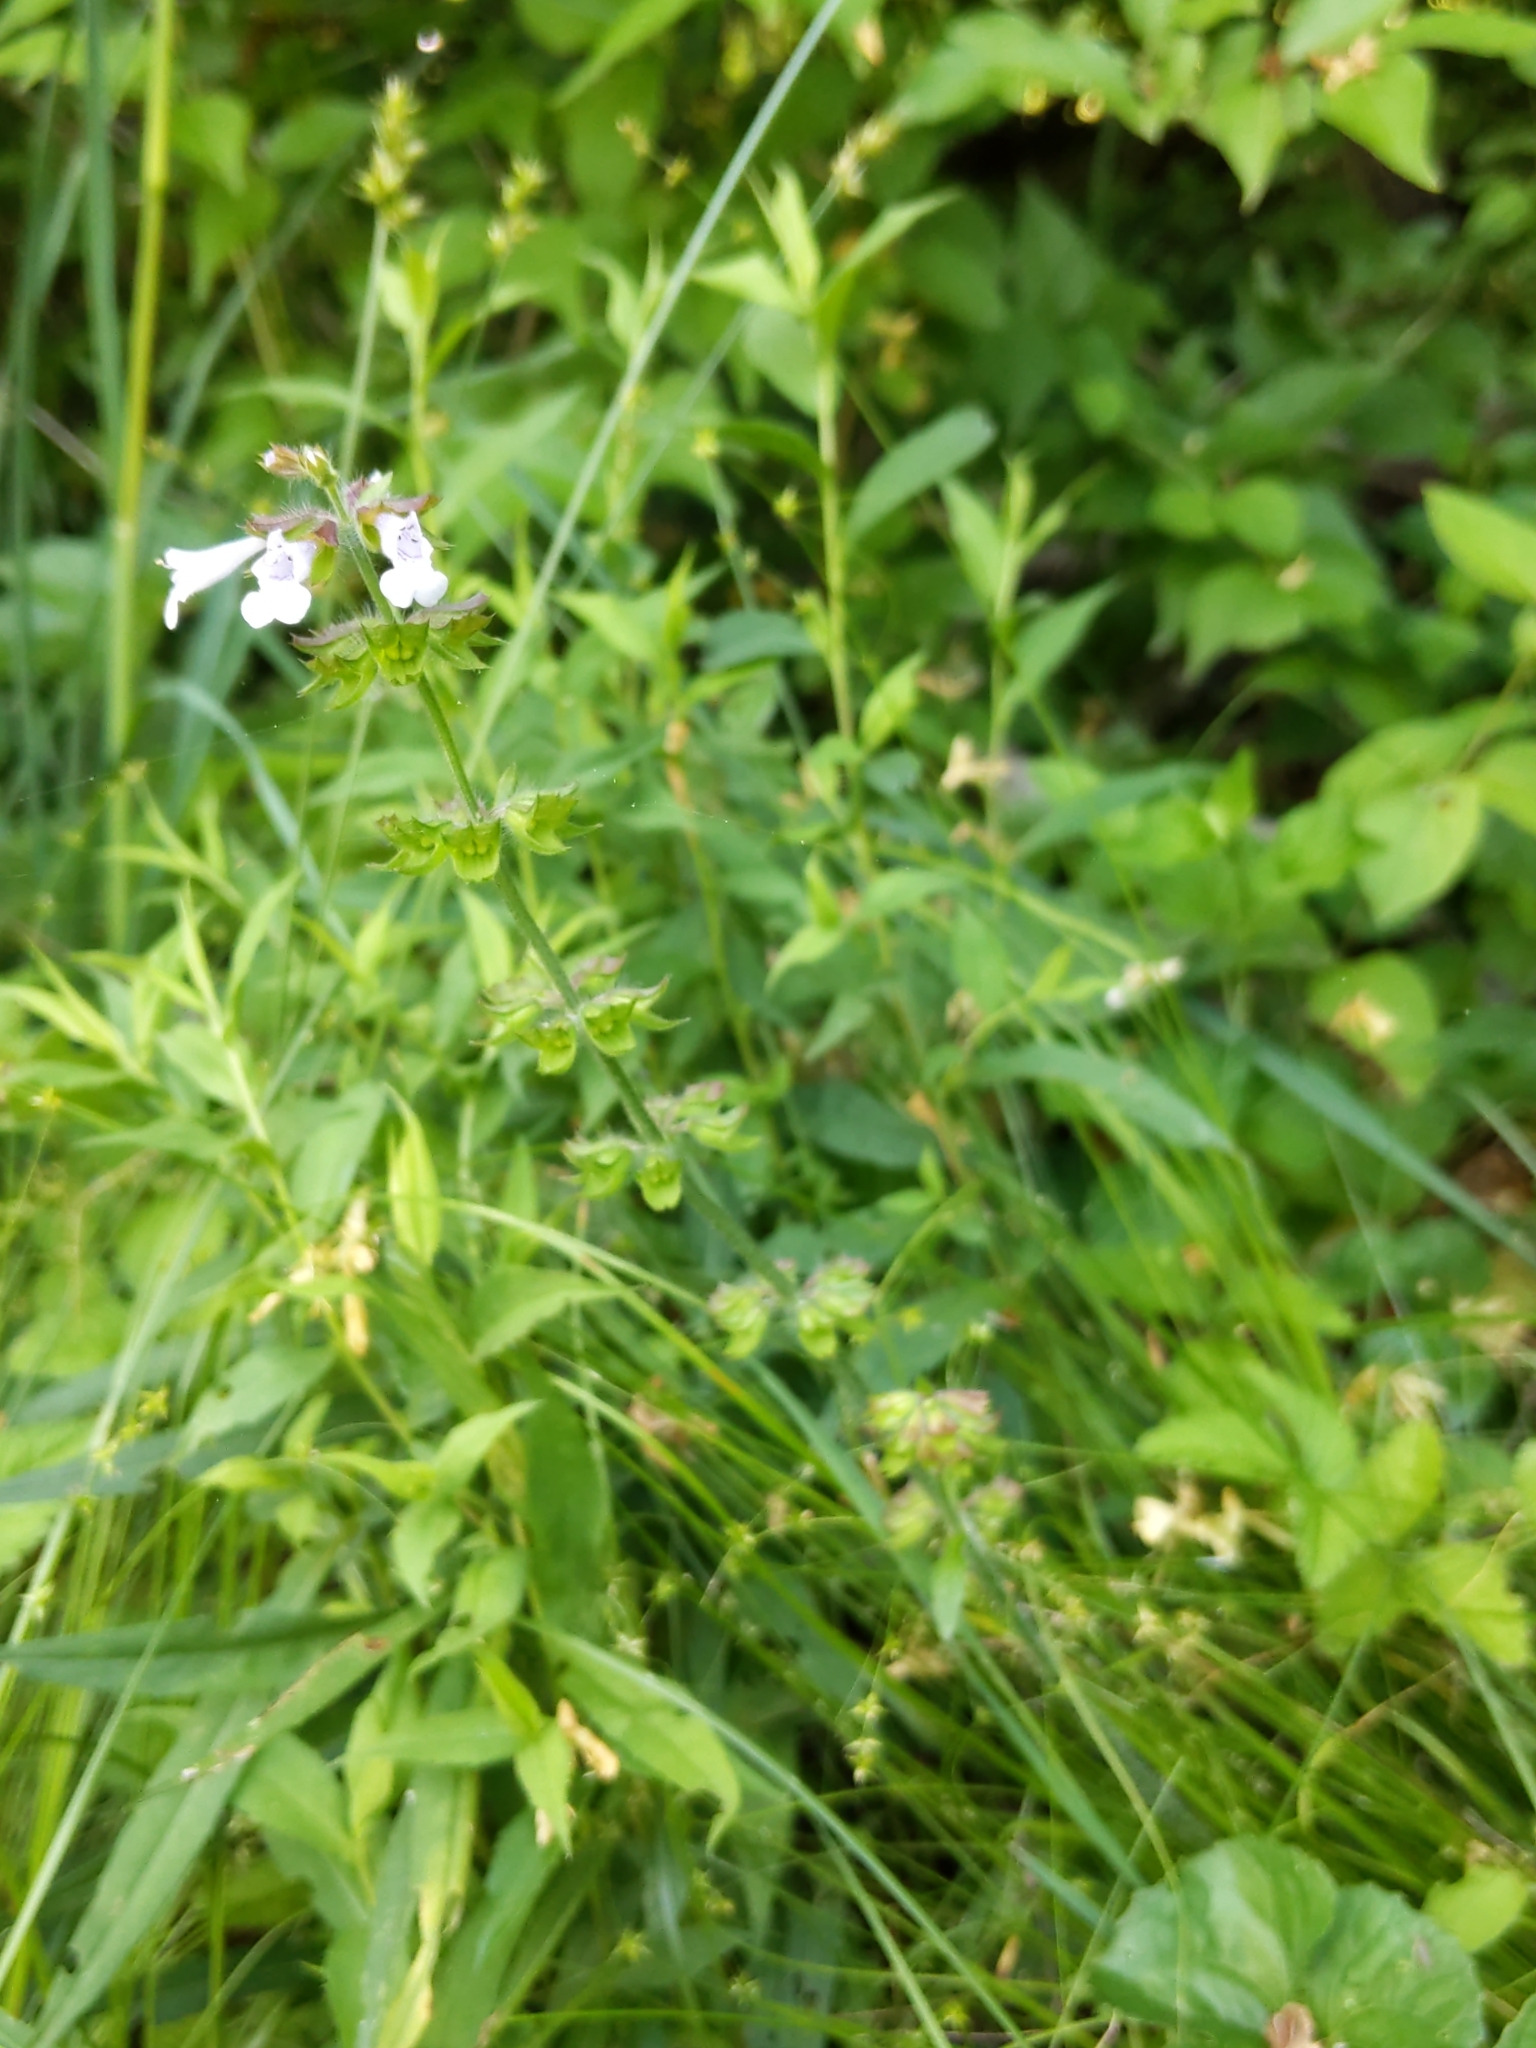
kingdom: Plantae
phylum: Tracheophyta
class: Magnoliopsida
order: Lamiales
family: Lamiaceae
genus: Salvia
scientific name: Salvia lyrata
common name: Cancerweed
